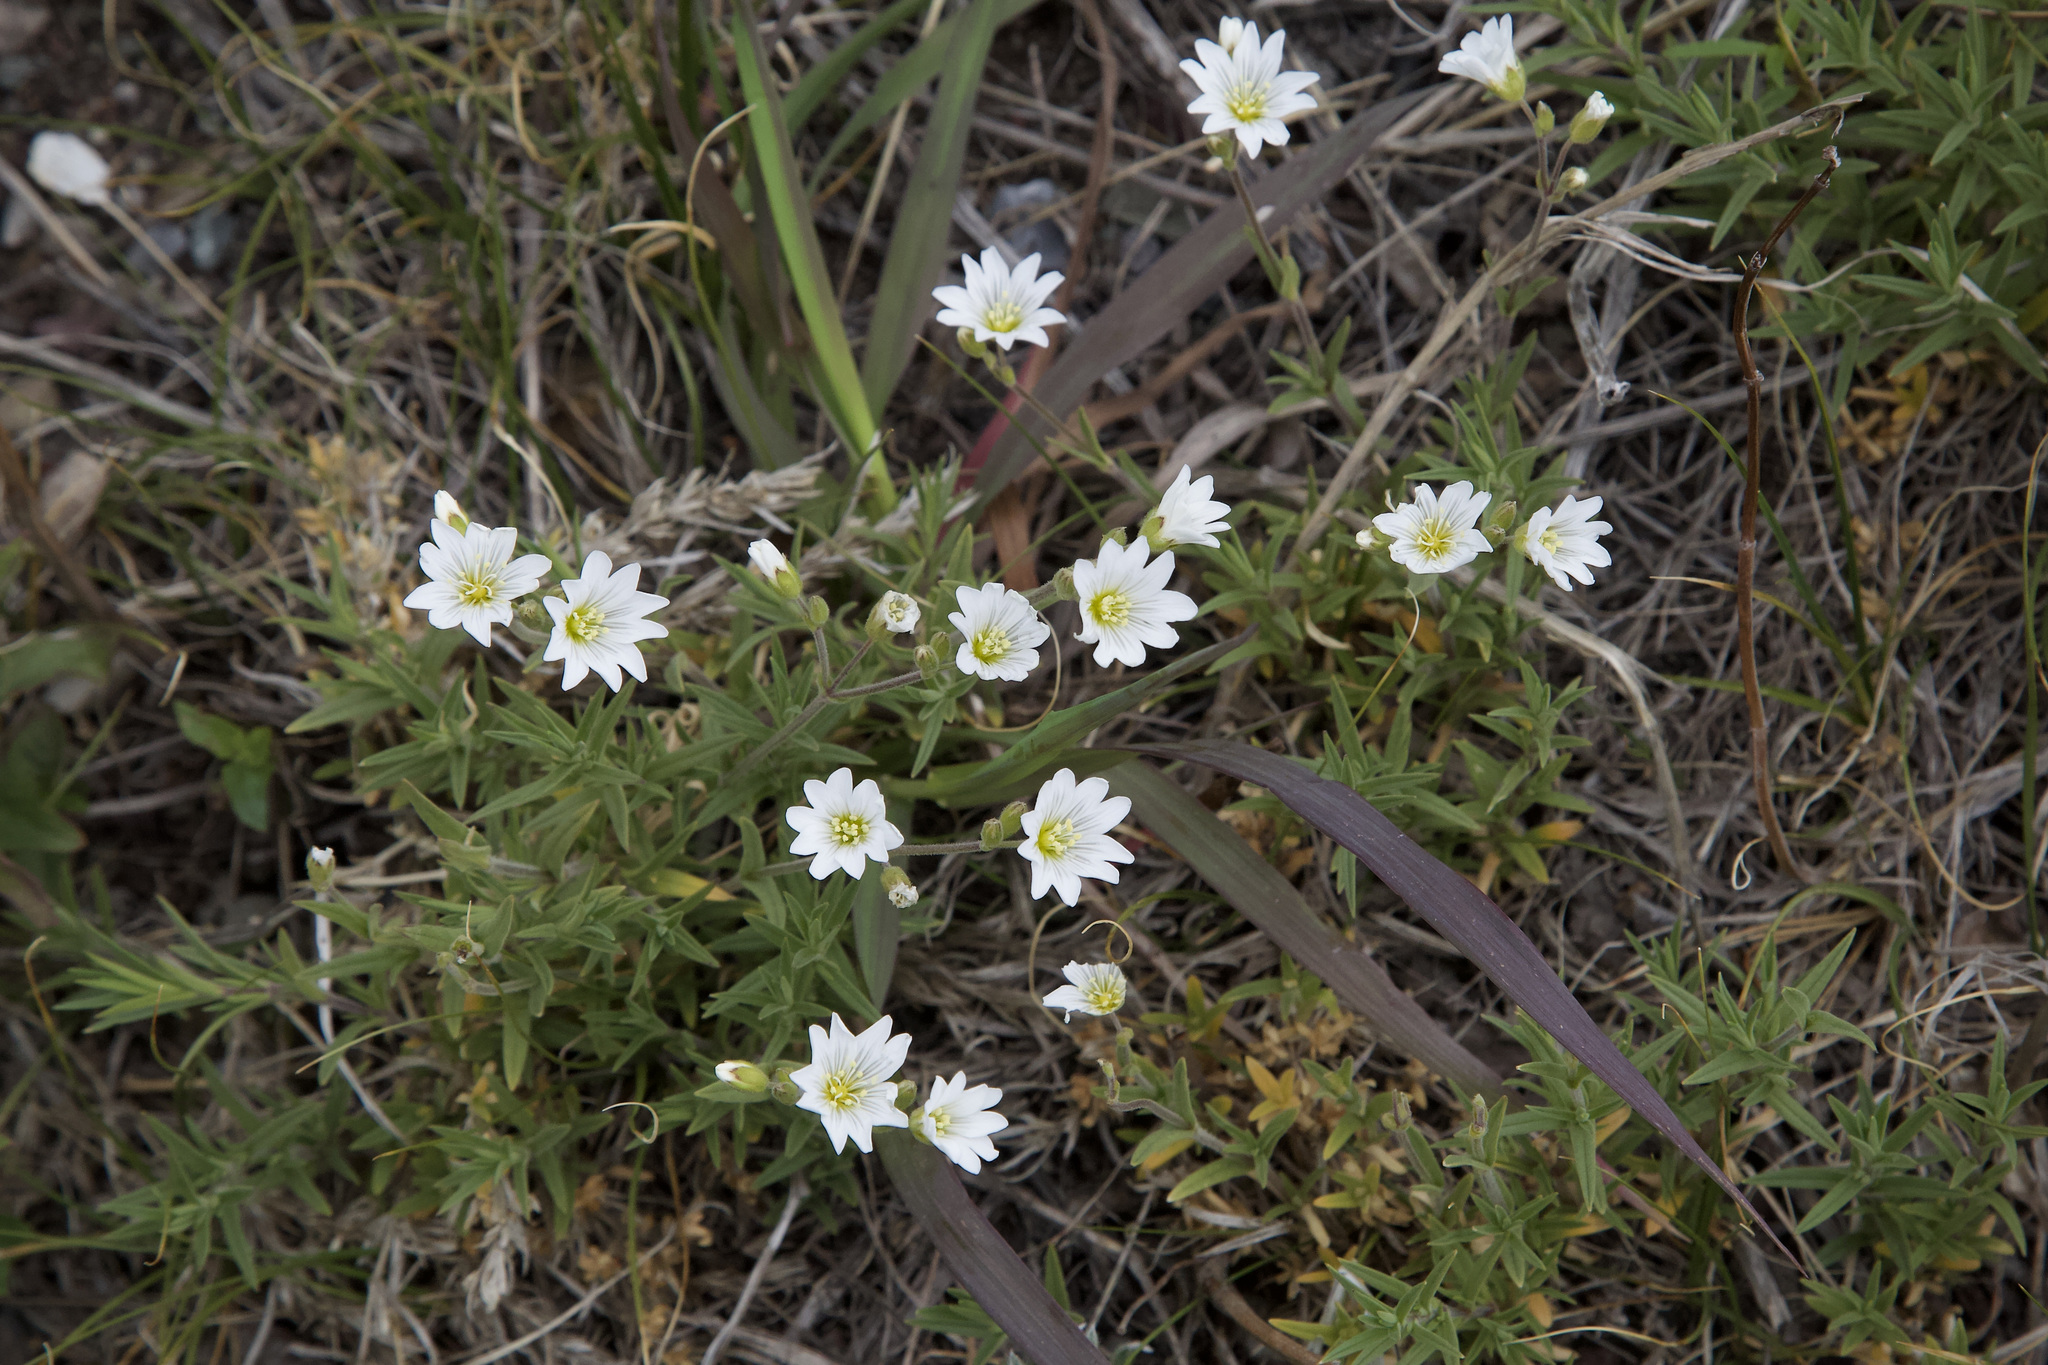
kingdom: Plantae
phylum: Tracheophyta
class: Magnoliopsida
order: Caryophyllales
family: Caryophyllaceae
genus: Cerastium
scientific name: Cerastium arvense
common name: Field mouse-ear
